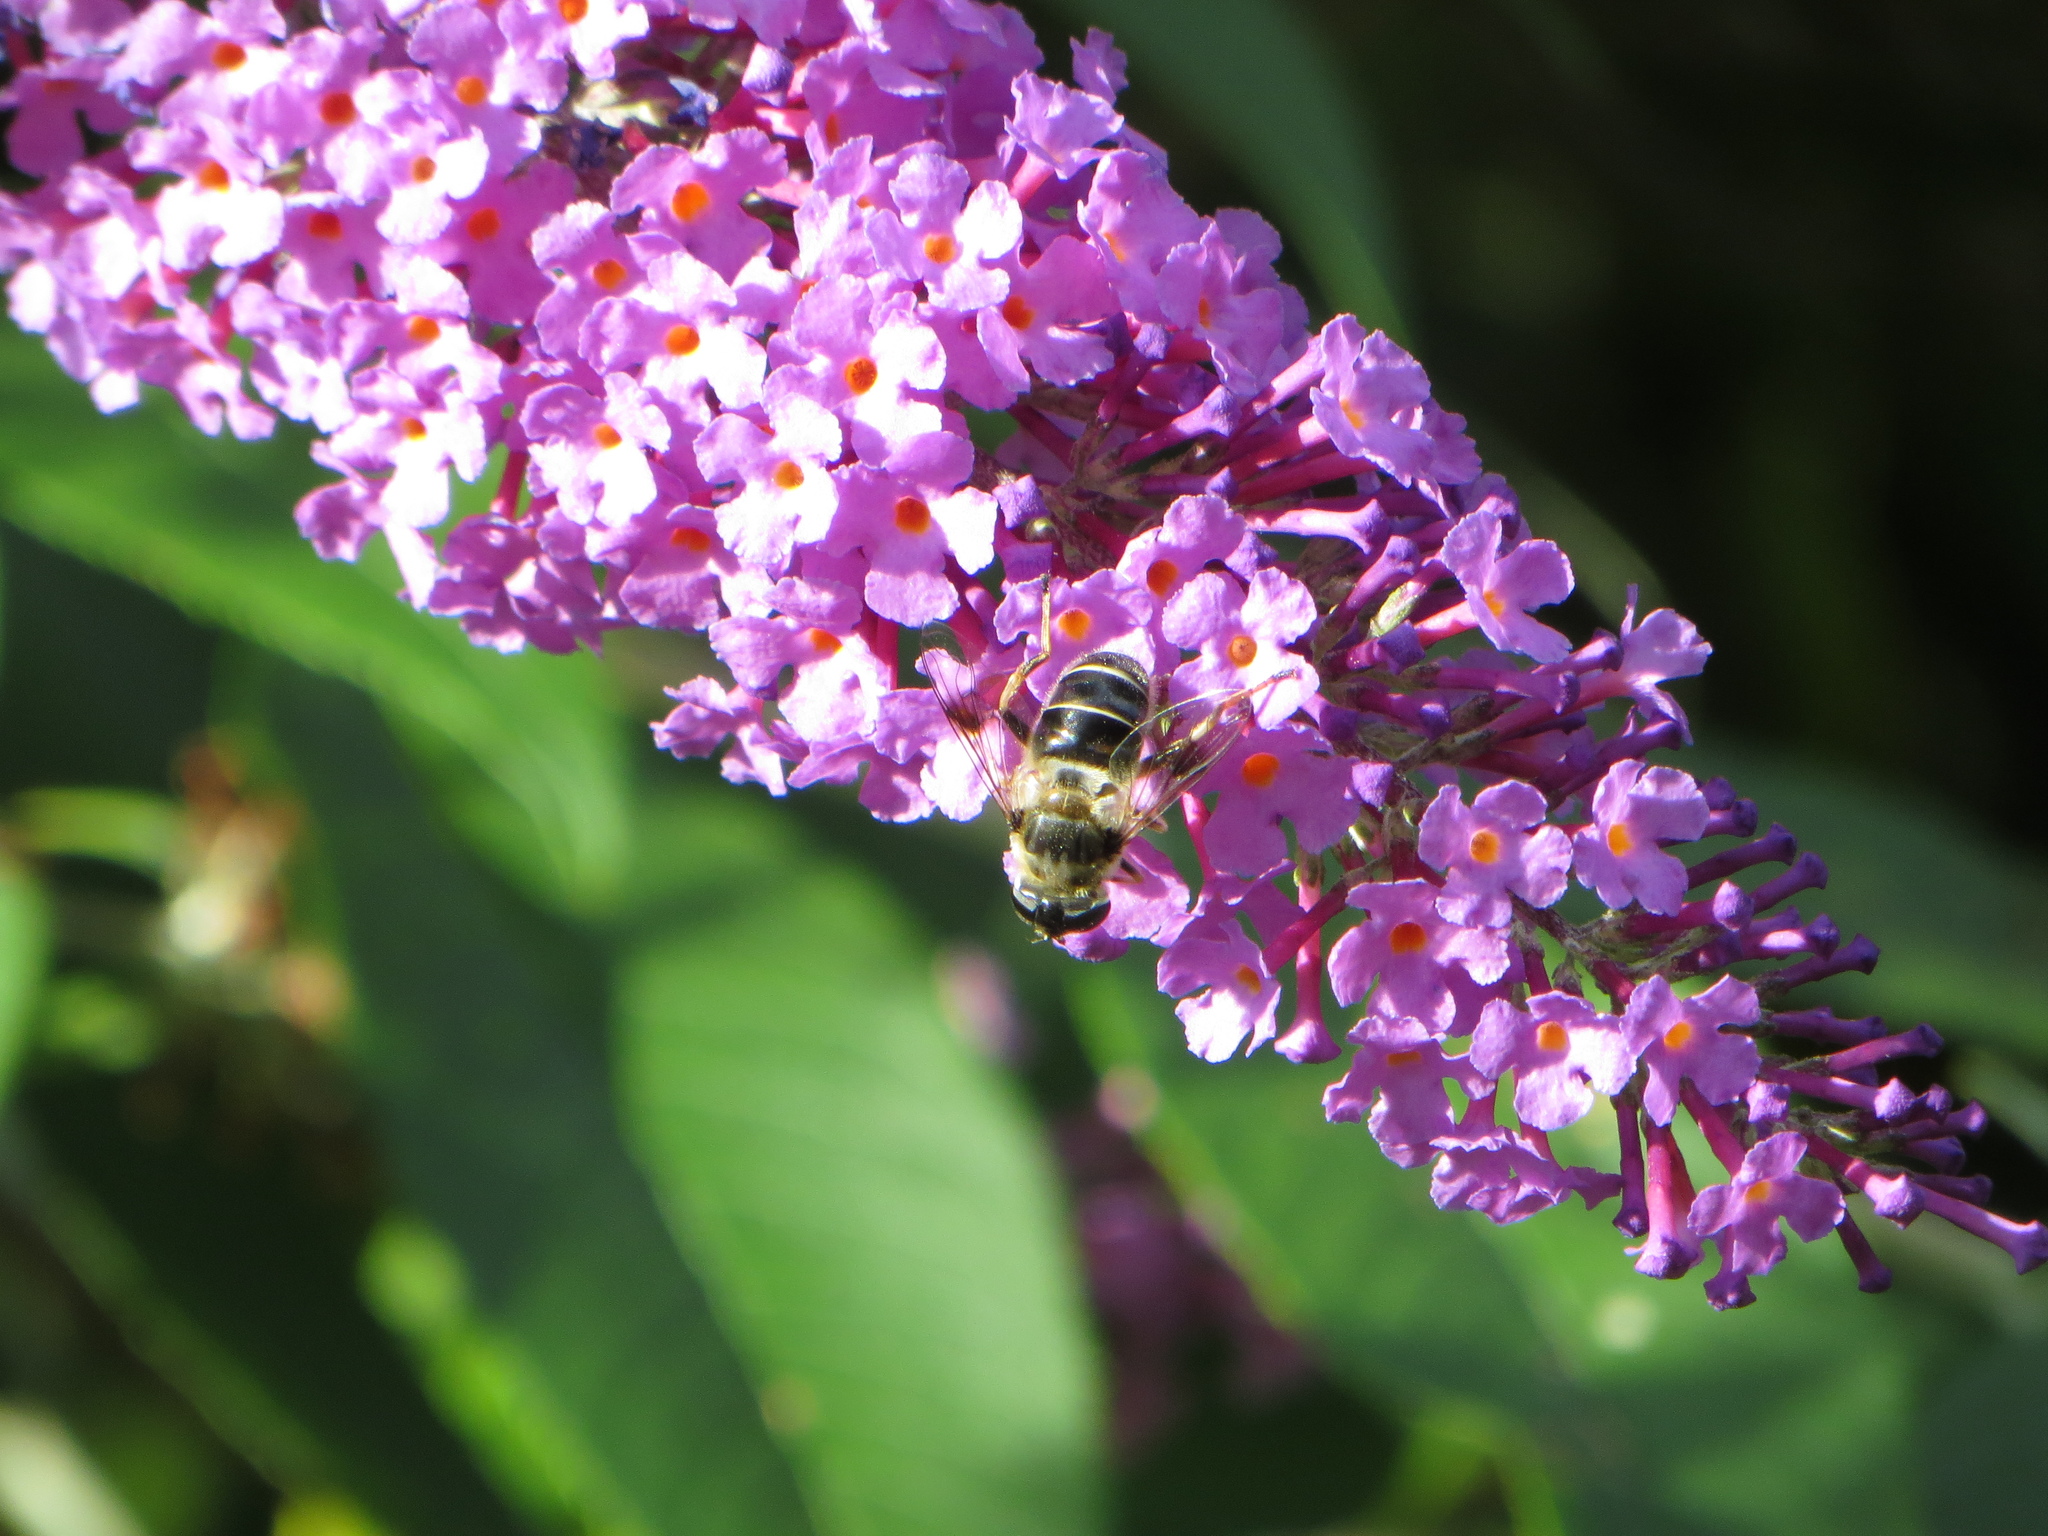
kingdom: Animalia
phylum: Arthropoda
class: Insecta
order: Diptera
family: Syrphidae
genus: Eristalis
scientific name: Eristalis alpina
